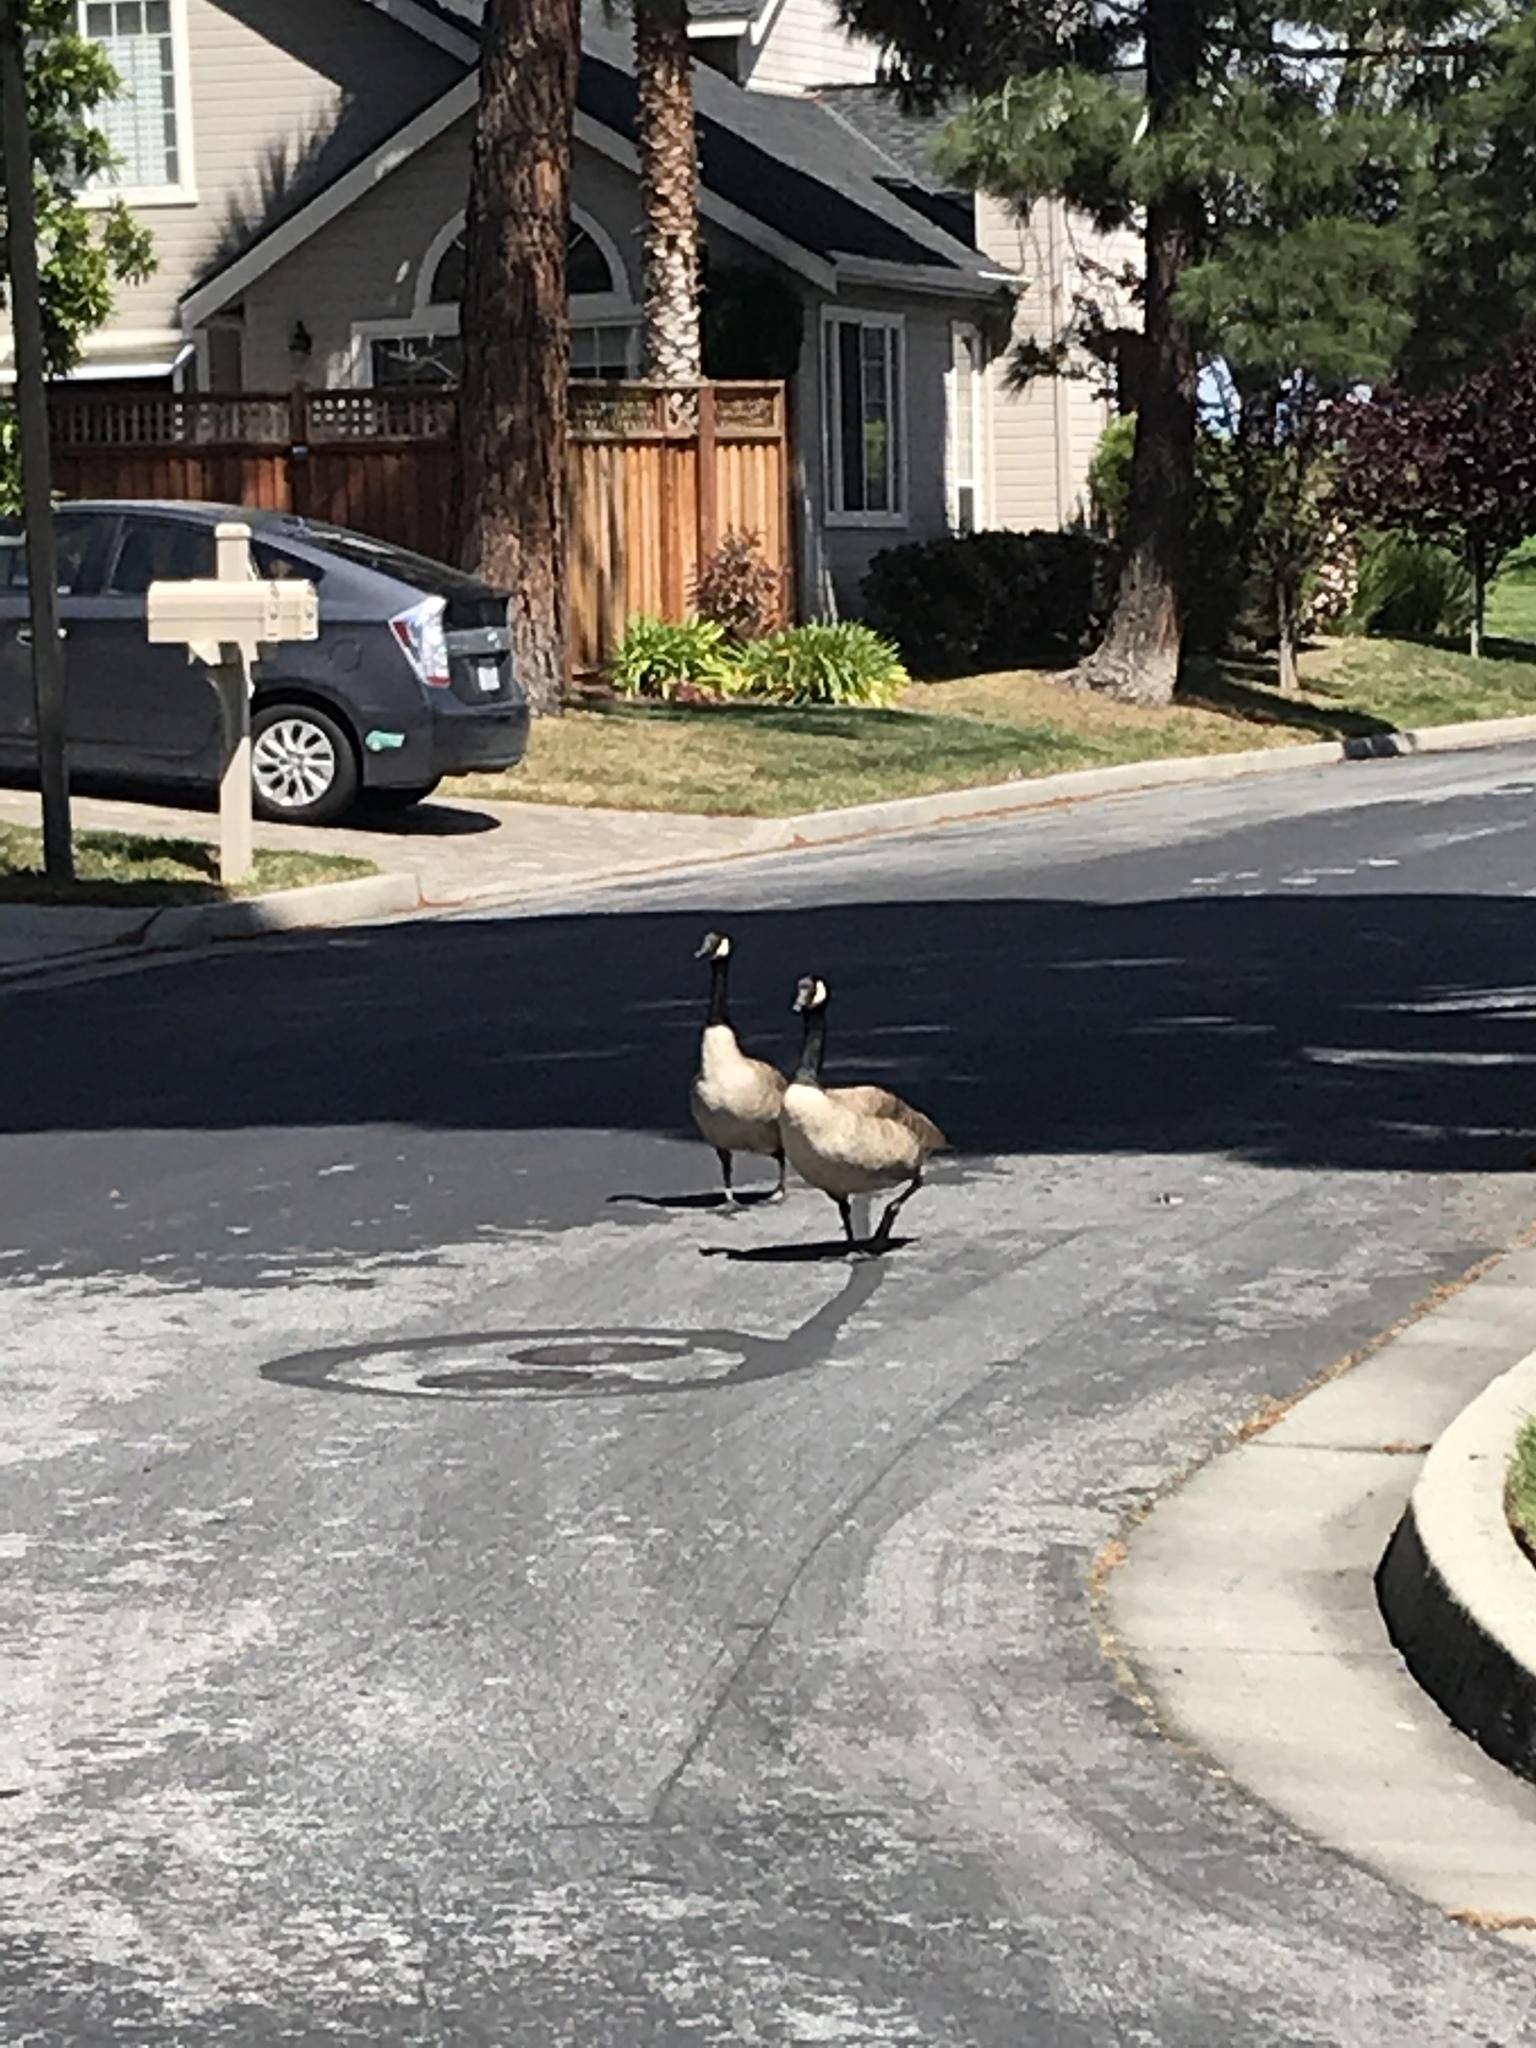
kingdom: Animalia
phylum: Chordata
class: Aves
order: Anseriformes
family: Anatidae
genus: Branta
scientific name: Branta canadensis
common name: Canada goose
